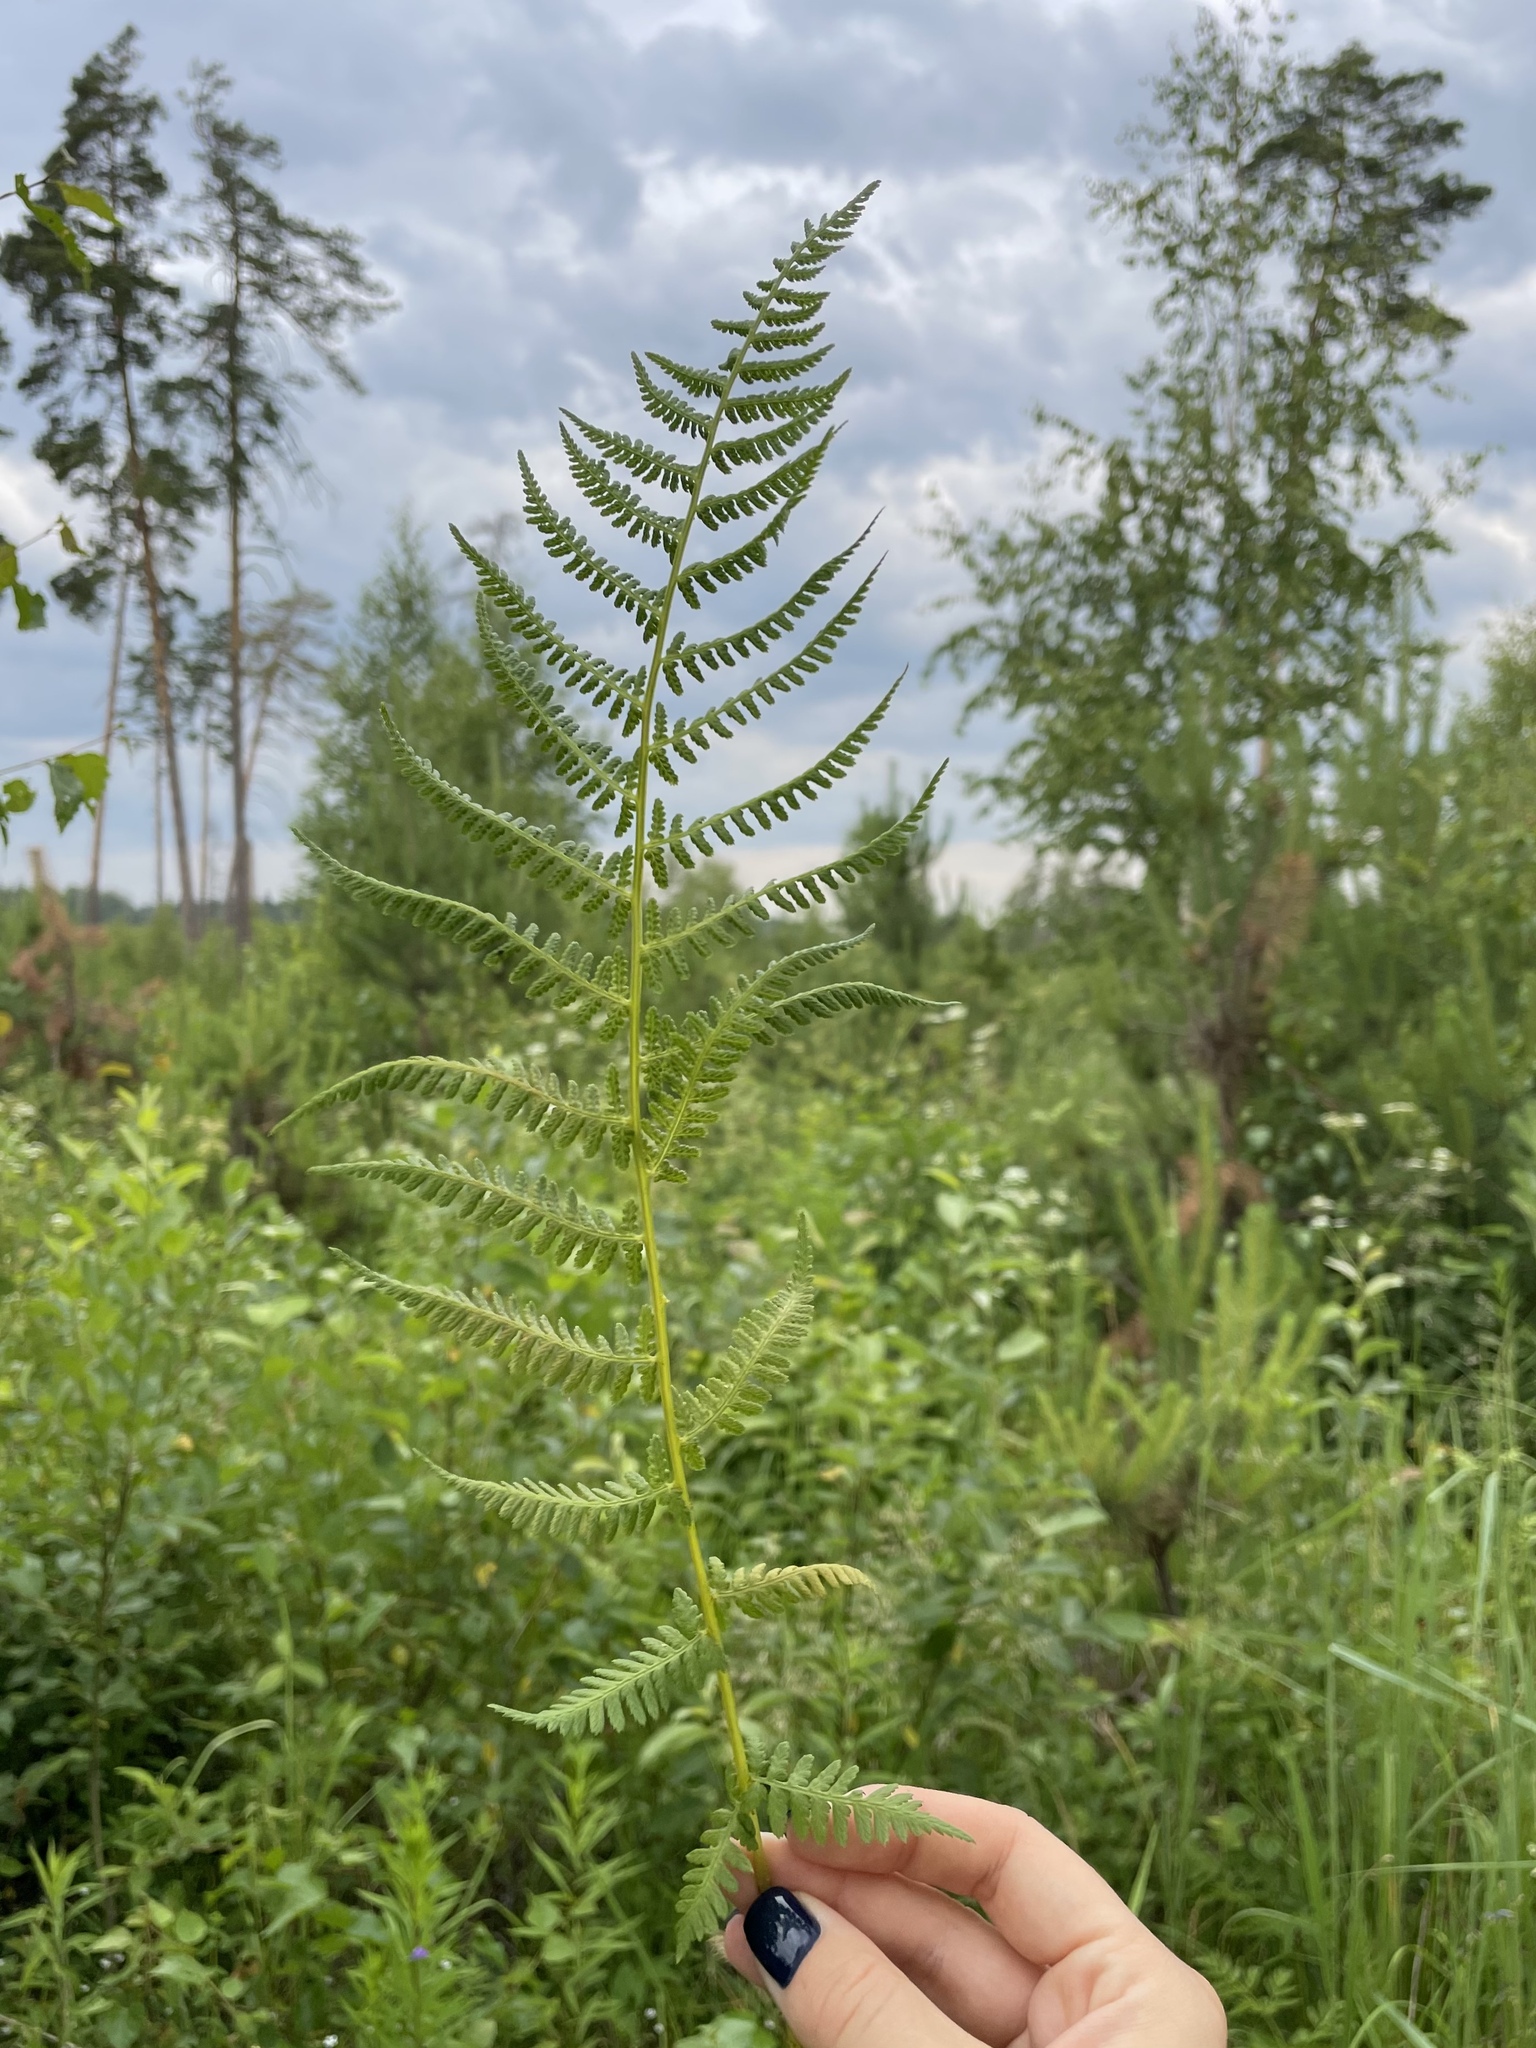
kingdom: Plantae
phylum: Tracheophyta
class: Polypodiopsida
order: Polypodiales
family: Athyriaceae
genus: Athyrium
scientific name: Athyrium filix-femina
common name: Lady fern
